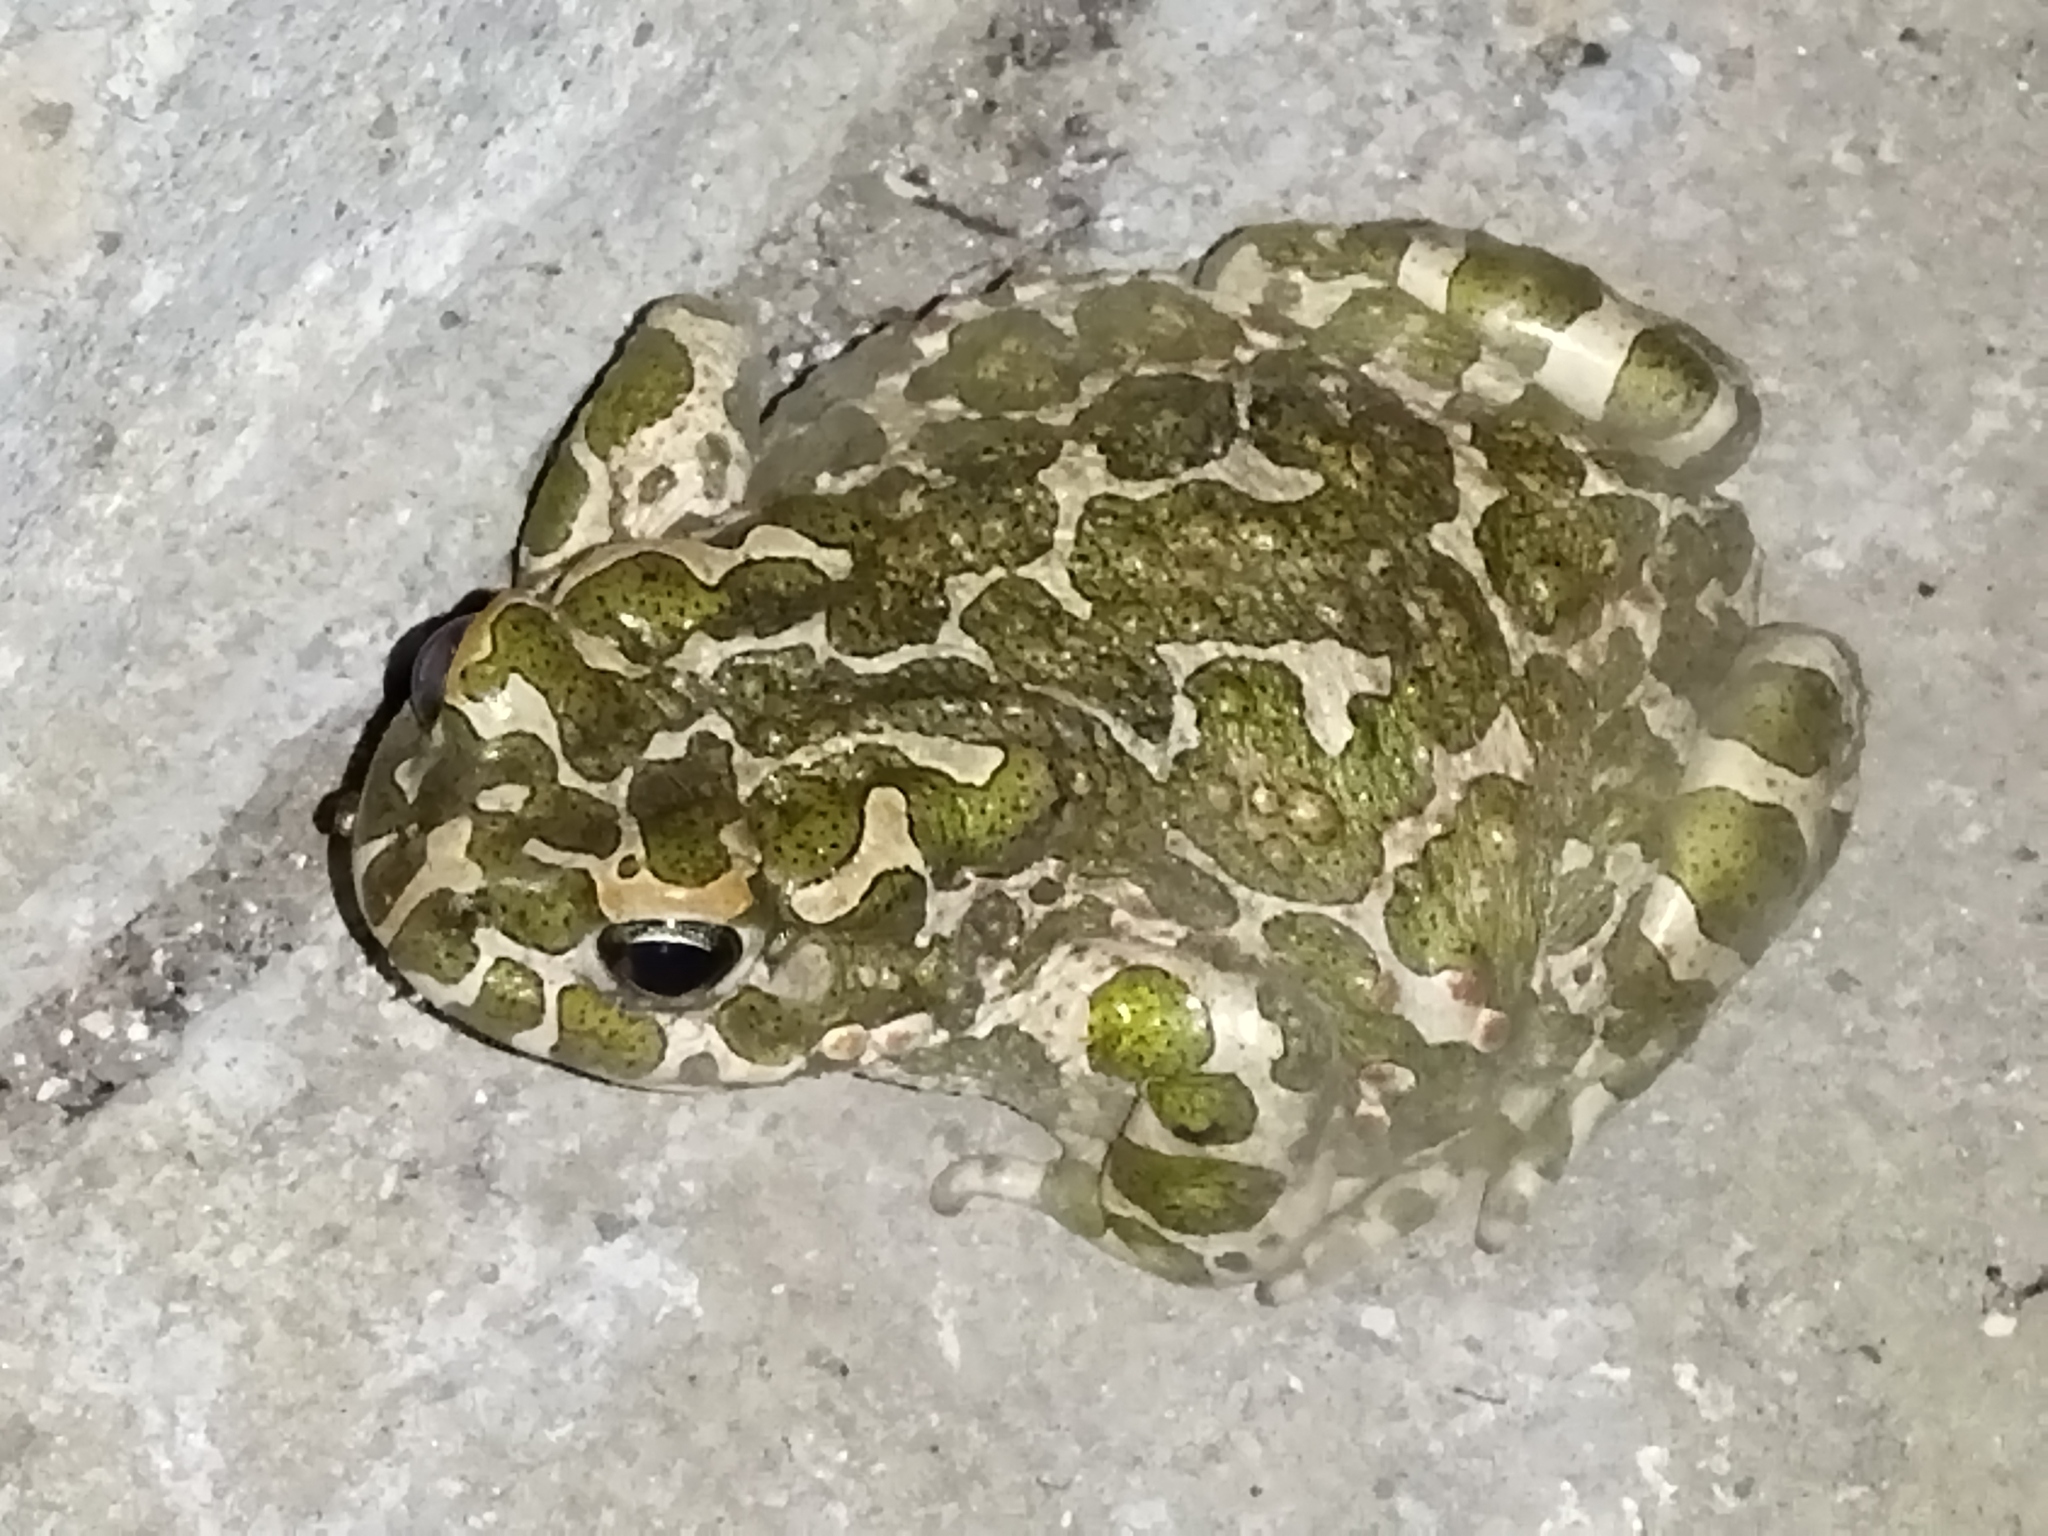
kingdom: Animalia
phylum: Chordata
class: Amphibia
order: Anura
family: Bufonidae
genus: Bufotes
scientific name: Bufotes viridis
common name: European green toad
